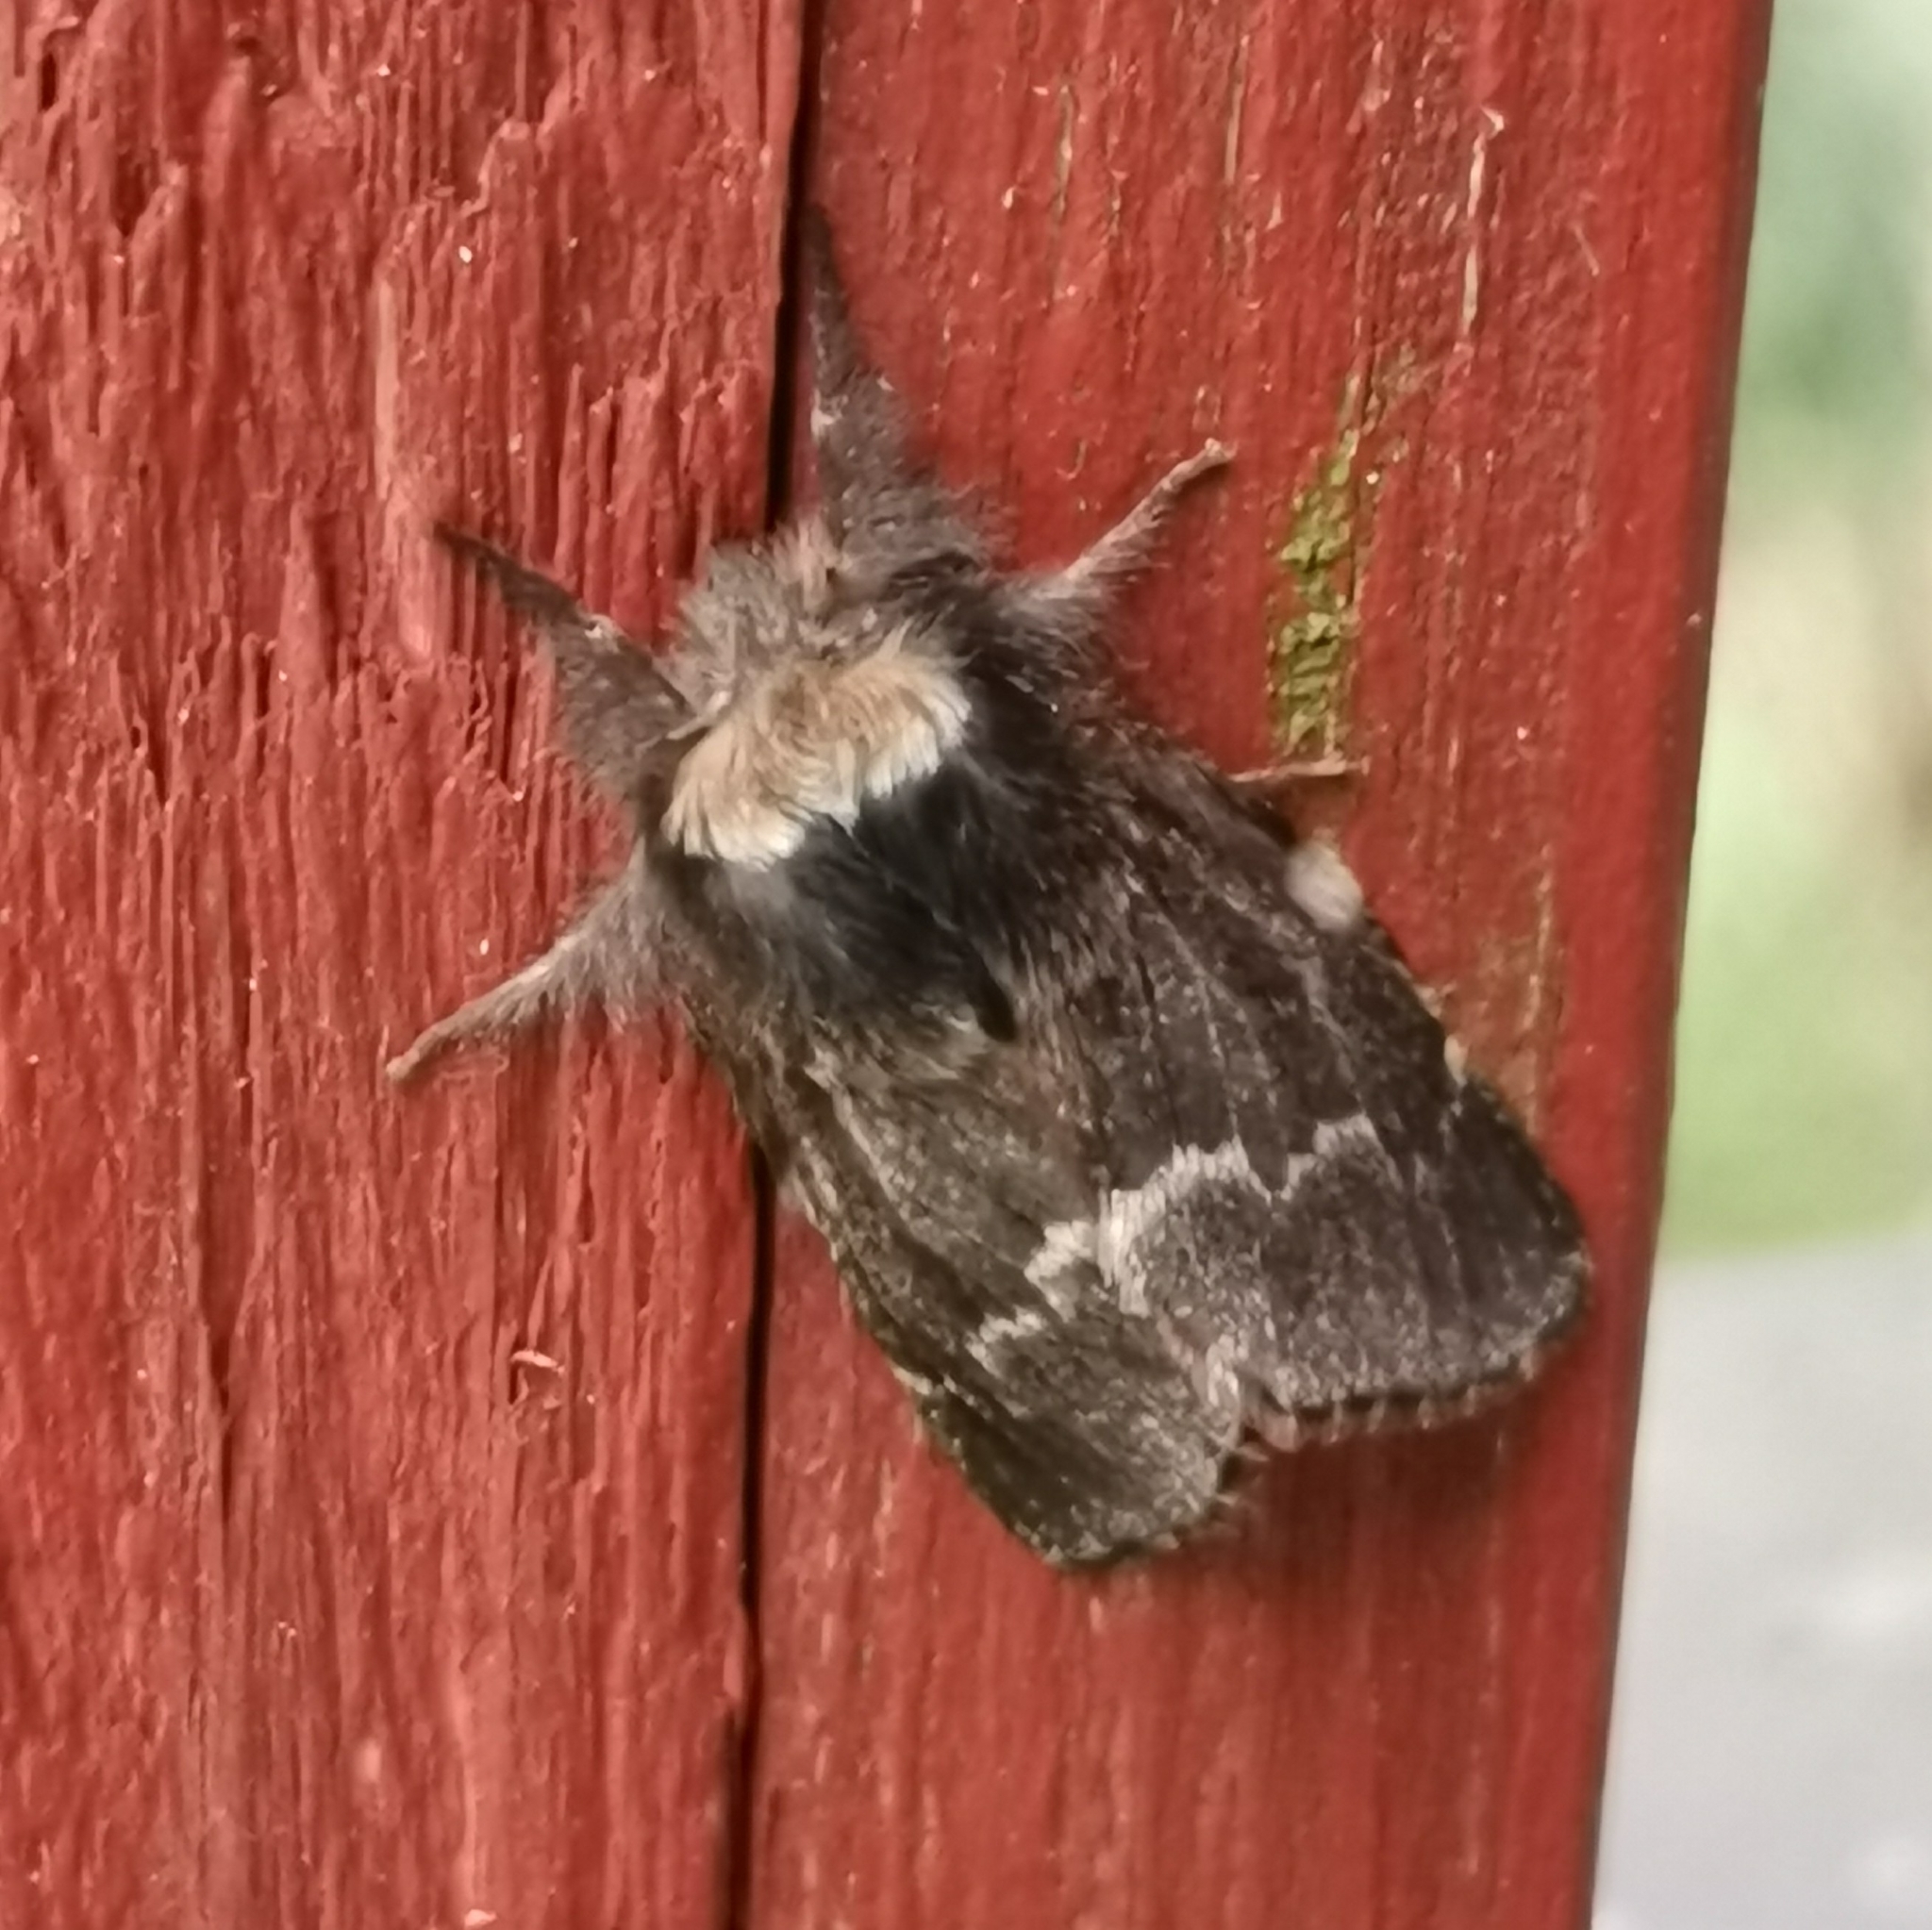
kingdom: Animalia
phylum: Arthropoda
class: Insecta
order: Lepidoptera
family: Lasiocampidae
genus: Poecilocampa
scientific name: Poecilocampa populi
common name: December moth
